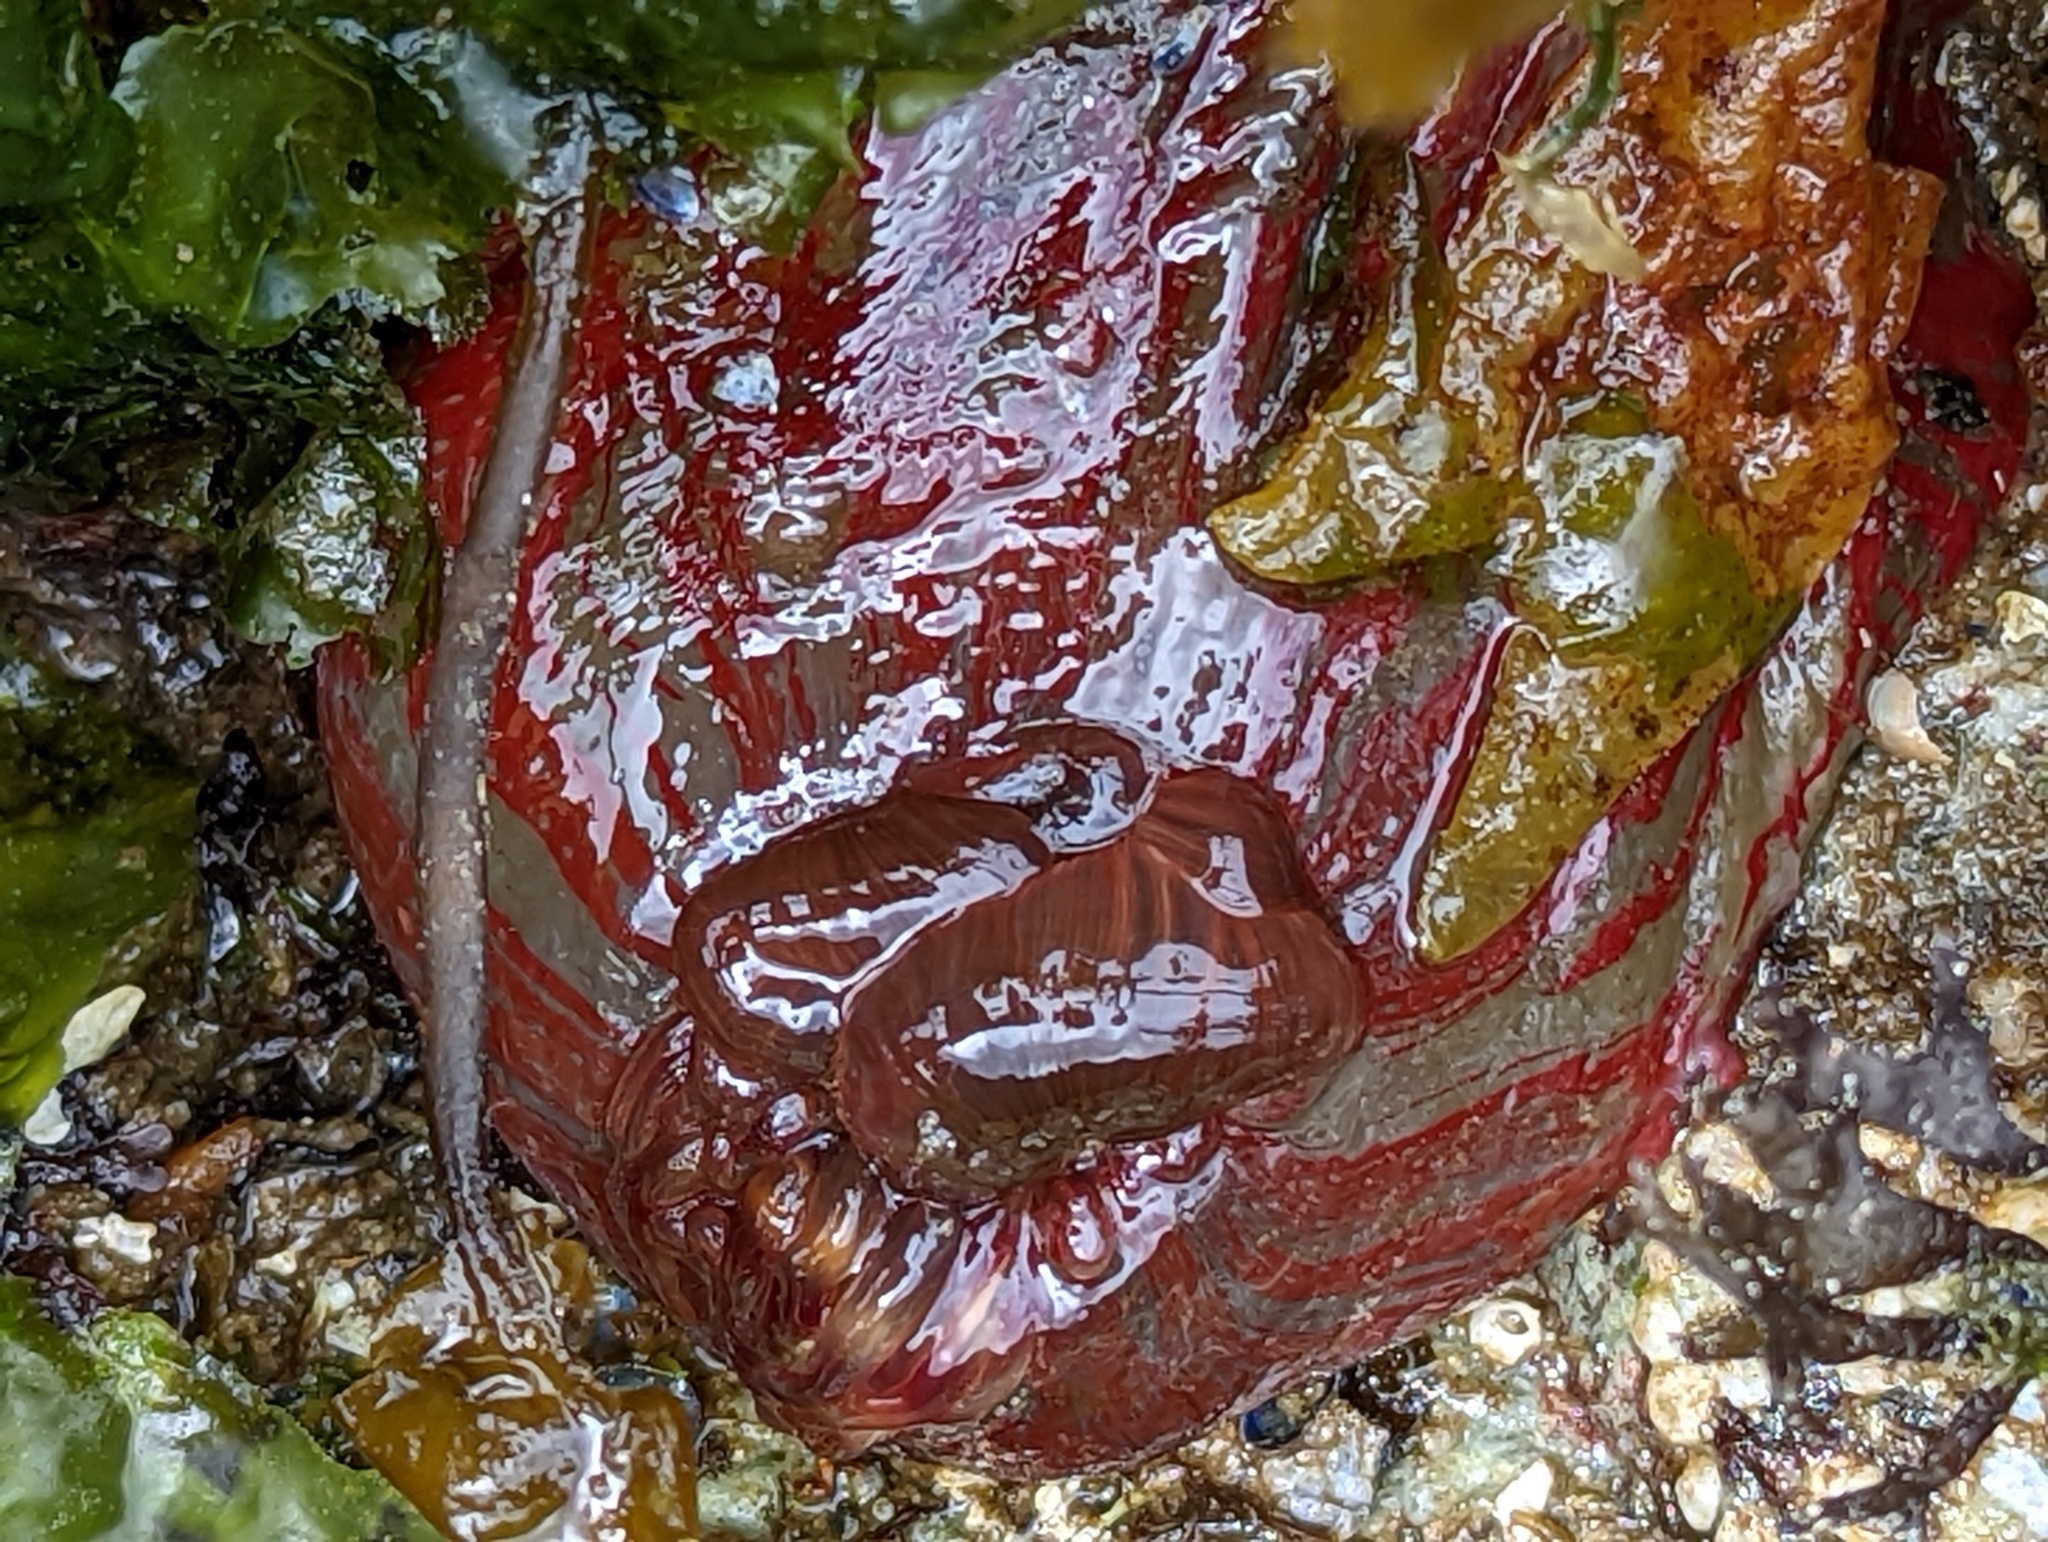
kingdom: Animalia
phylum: Cnidaria
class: Anthozoa
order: Actiniaria
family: Actiniidae
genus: Urticina
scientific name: Urticina grebelnyi
